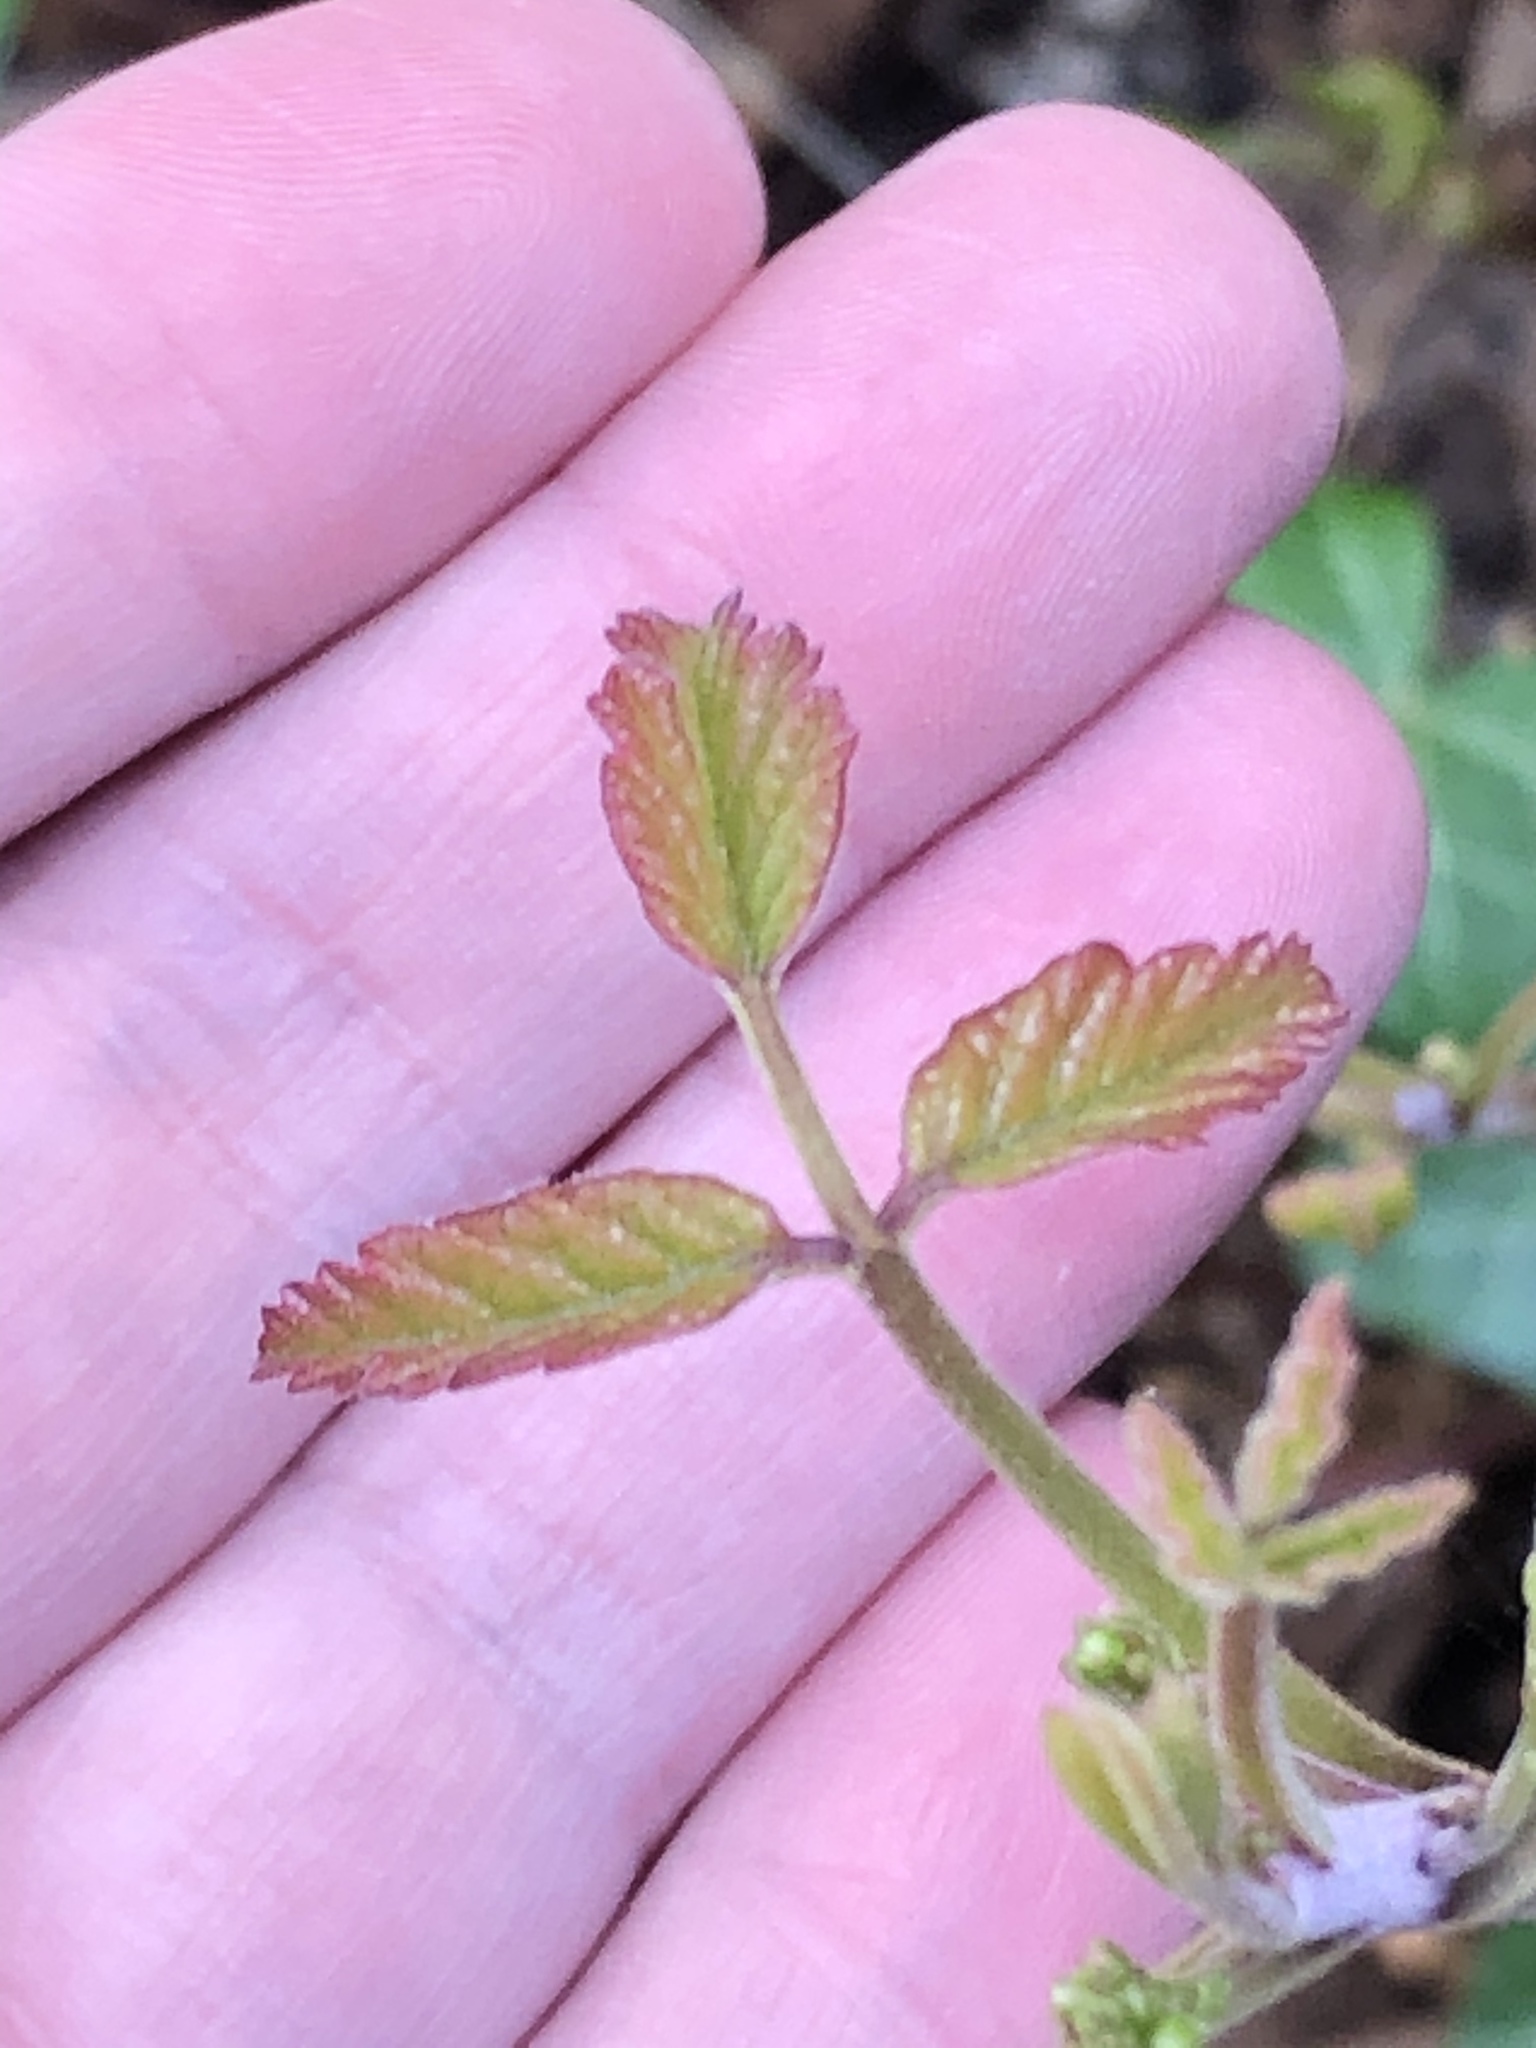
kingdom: Plantae
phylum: Tracheophyta
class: Magnoliopsida
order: Sapindales
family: Anacardiaceae
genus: Toxicodendron
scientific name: Toxicodendron diversilobum
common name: Pacific poison-oak
